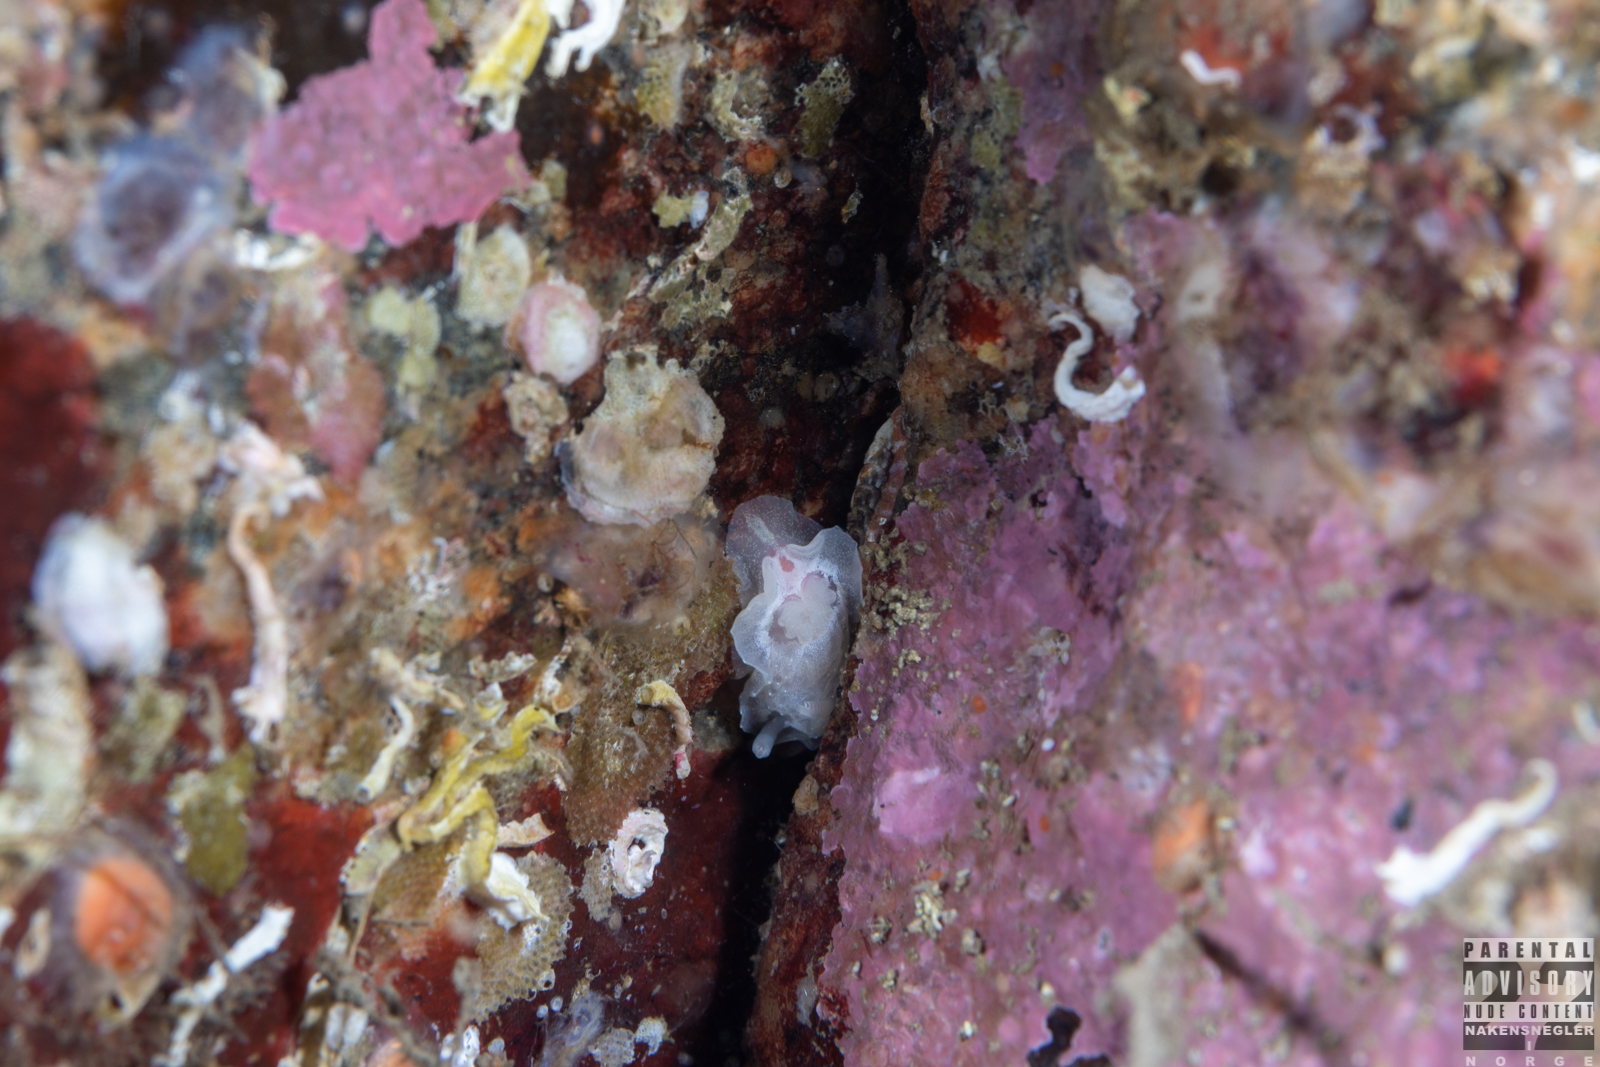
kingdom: Animalia
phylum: Mollusca
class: Gastropoda
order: Nudibranchia
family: Goniodorididae
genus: Okenia
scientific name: Okenia
